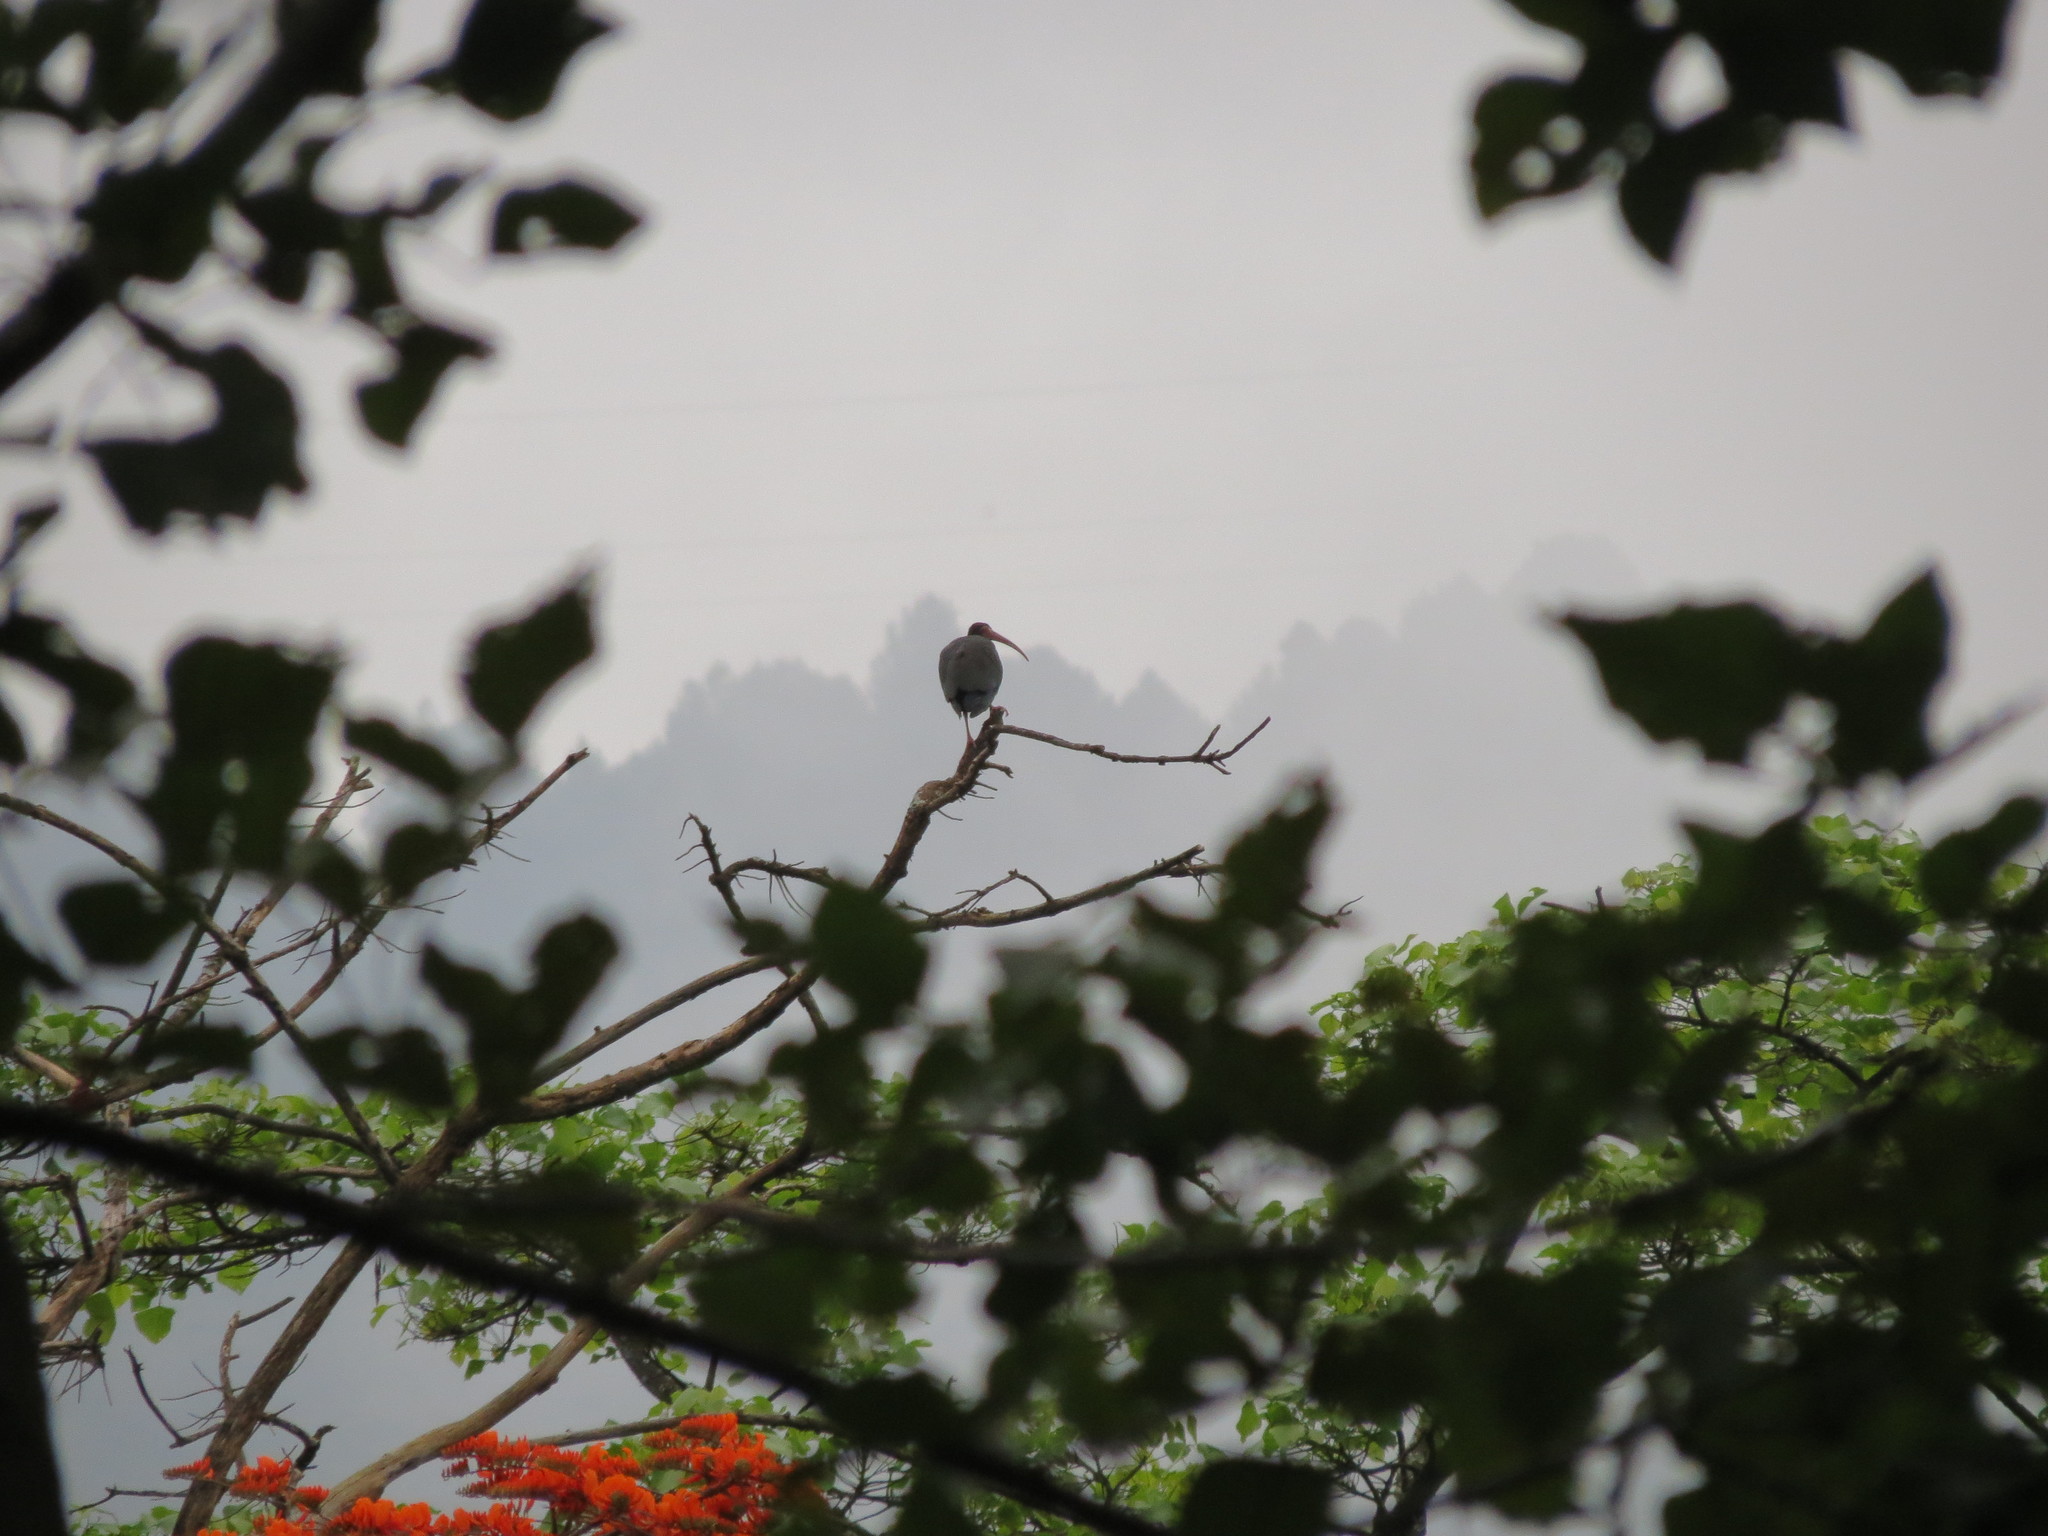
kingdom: Animalia
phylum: Chordata
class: Aves
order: Pelecaniformes
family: Threskiornithidae
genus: Phimosus
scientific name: Phimosus infuscatus
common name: Bare-faced ibis
